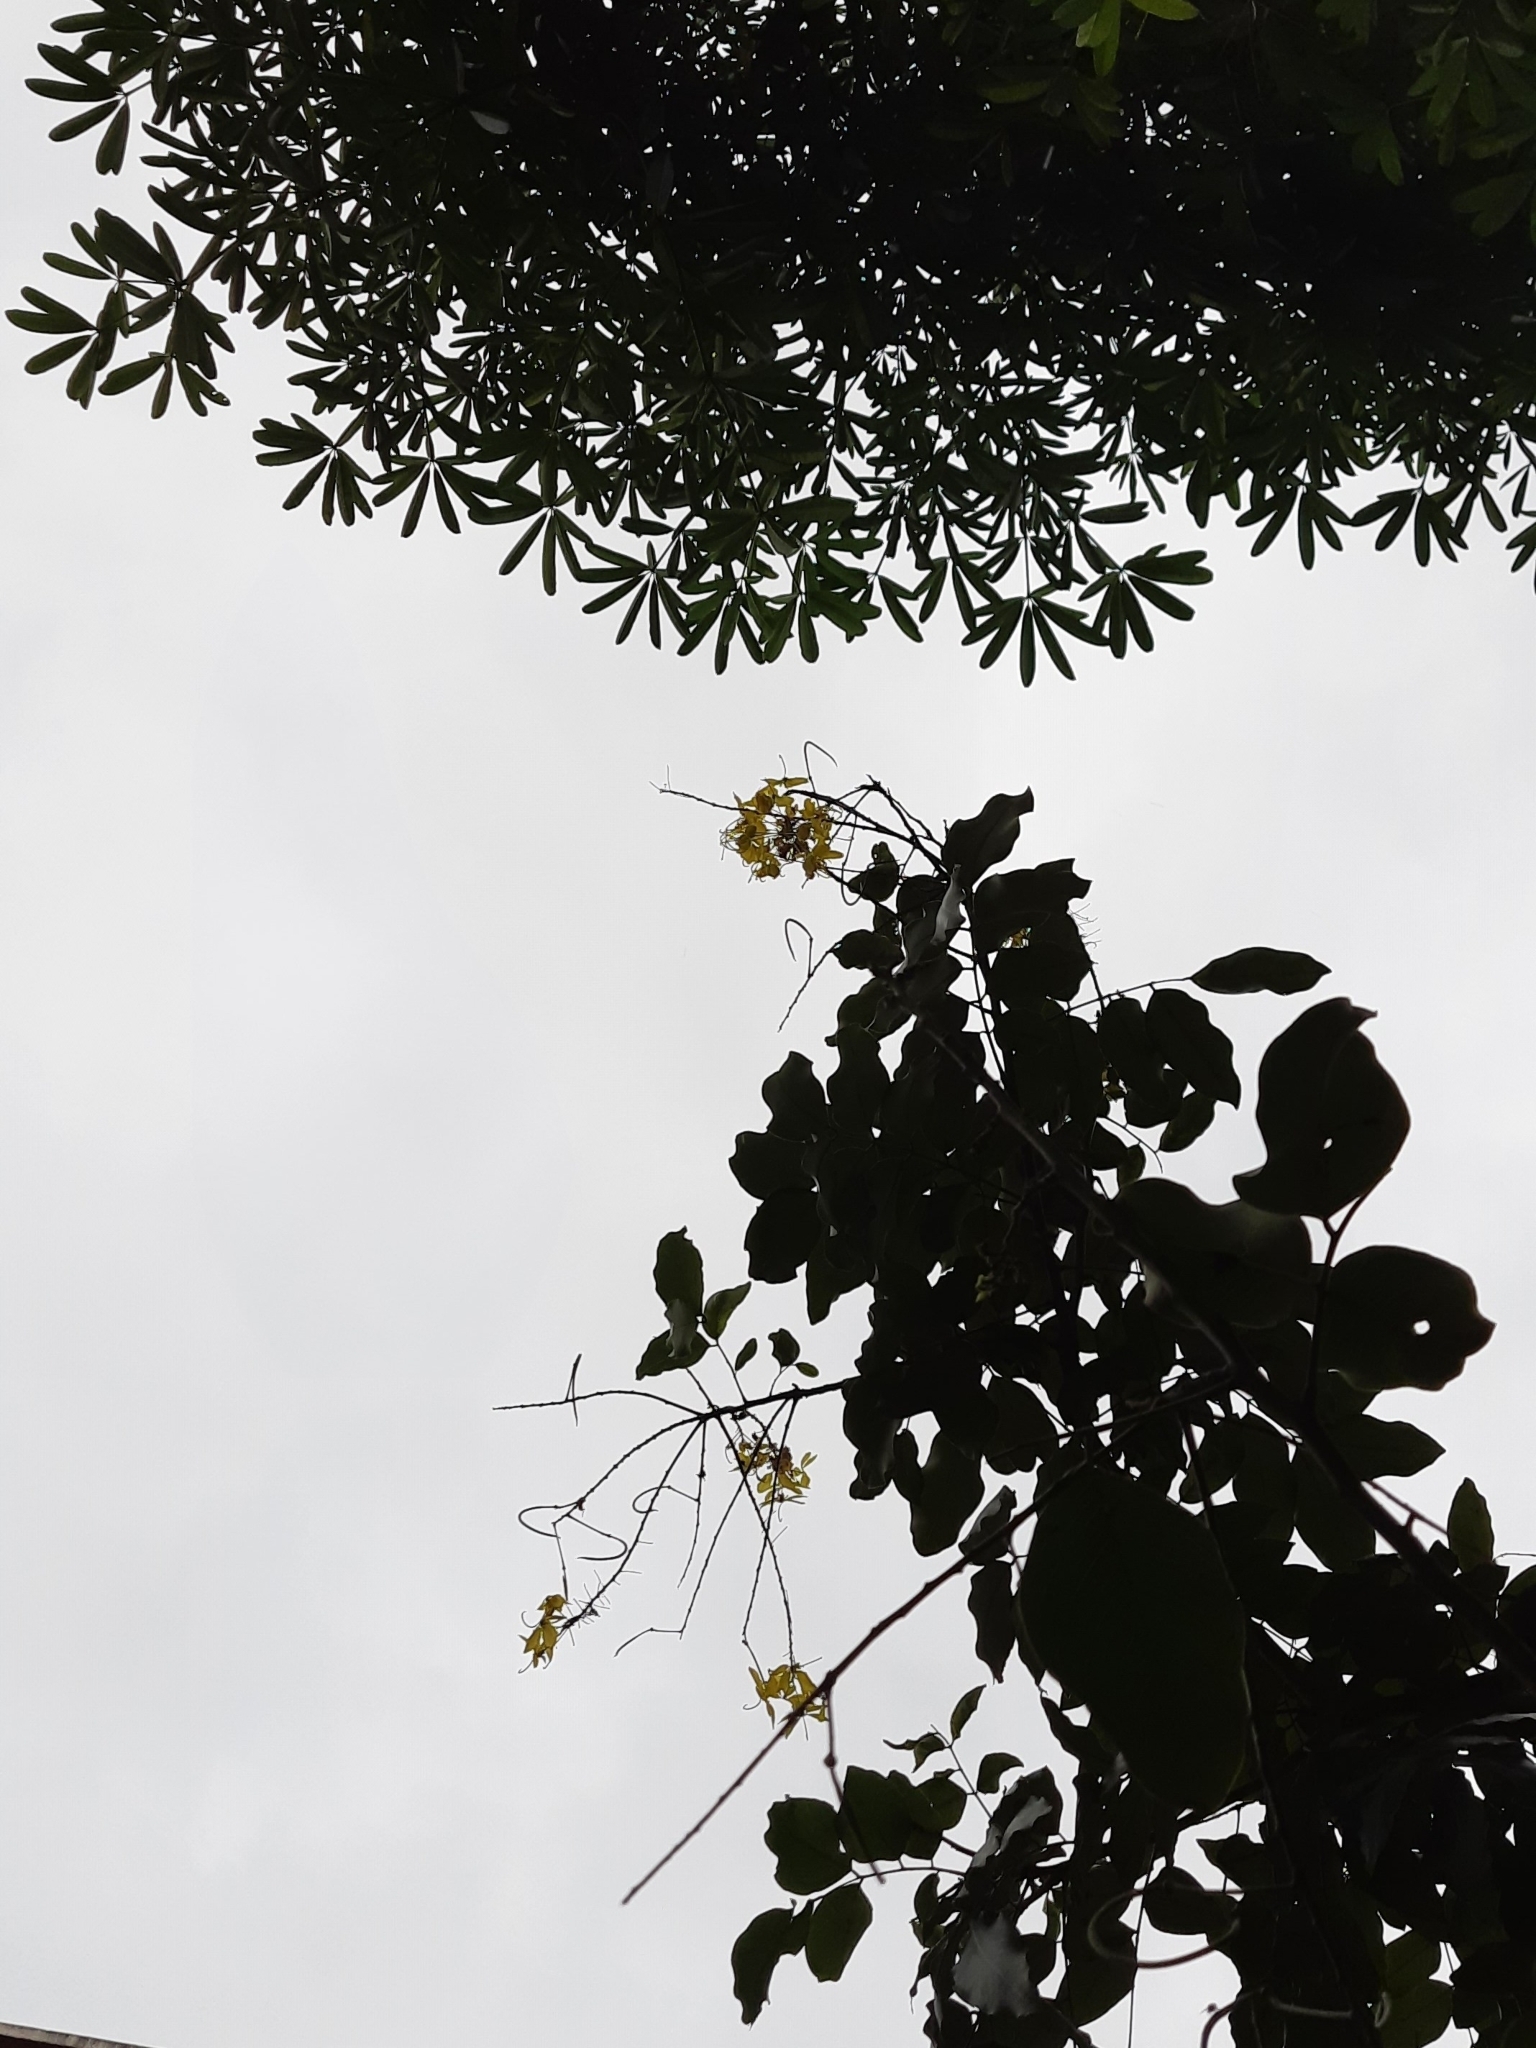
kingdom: Plantae
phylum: Tracheophyta
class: Magnoliopsida
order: Fabales
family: Fabaceae
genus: Cassia
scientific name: Cassia fistula
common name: Golden shower
